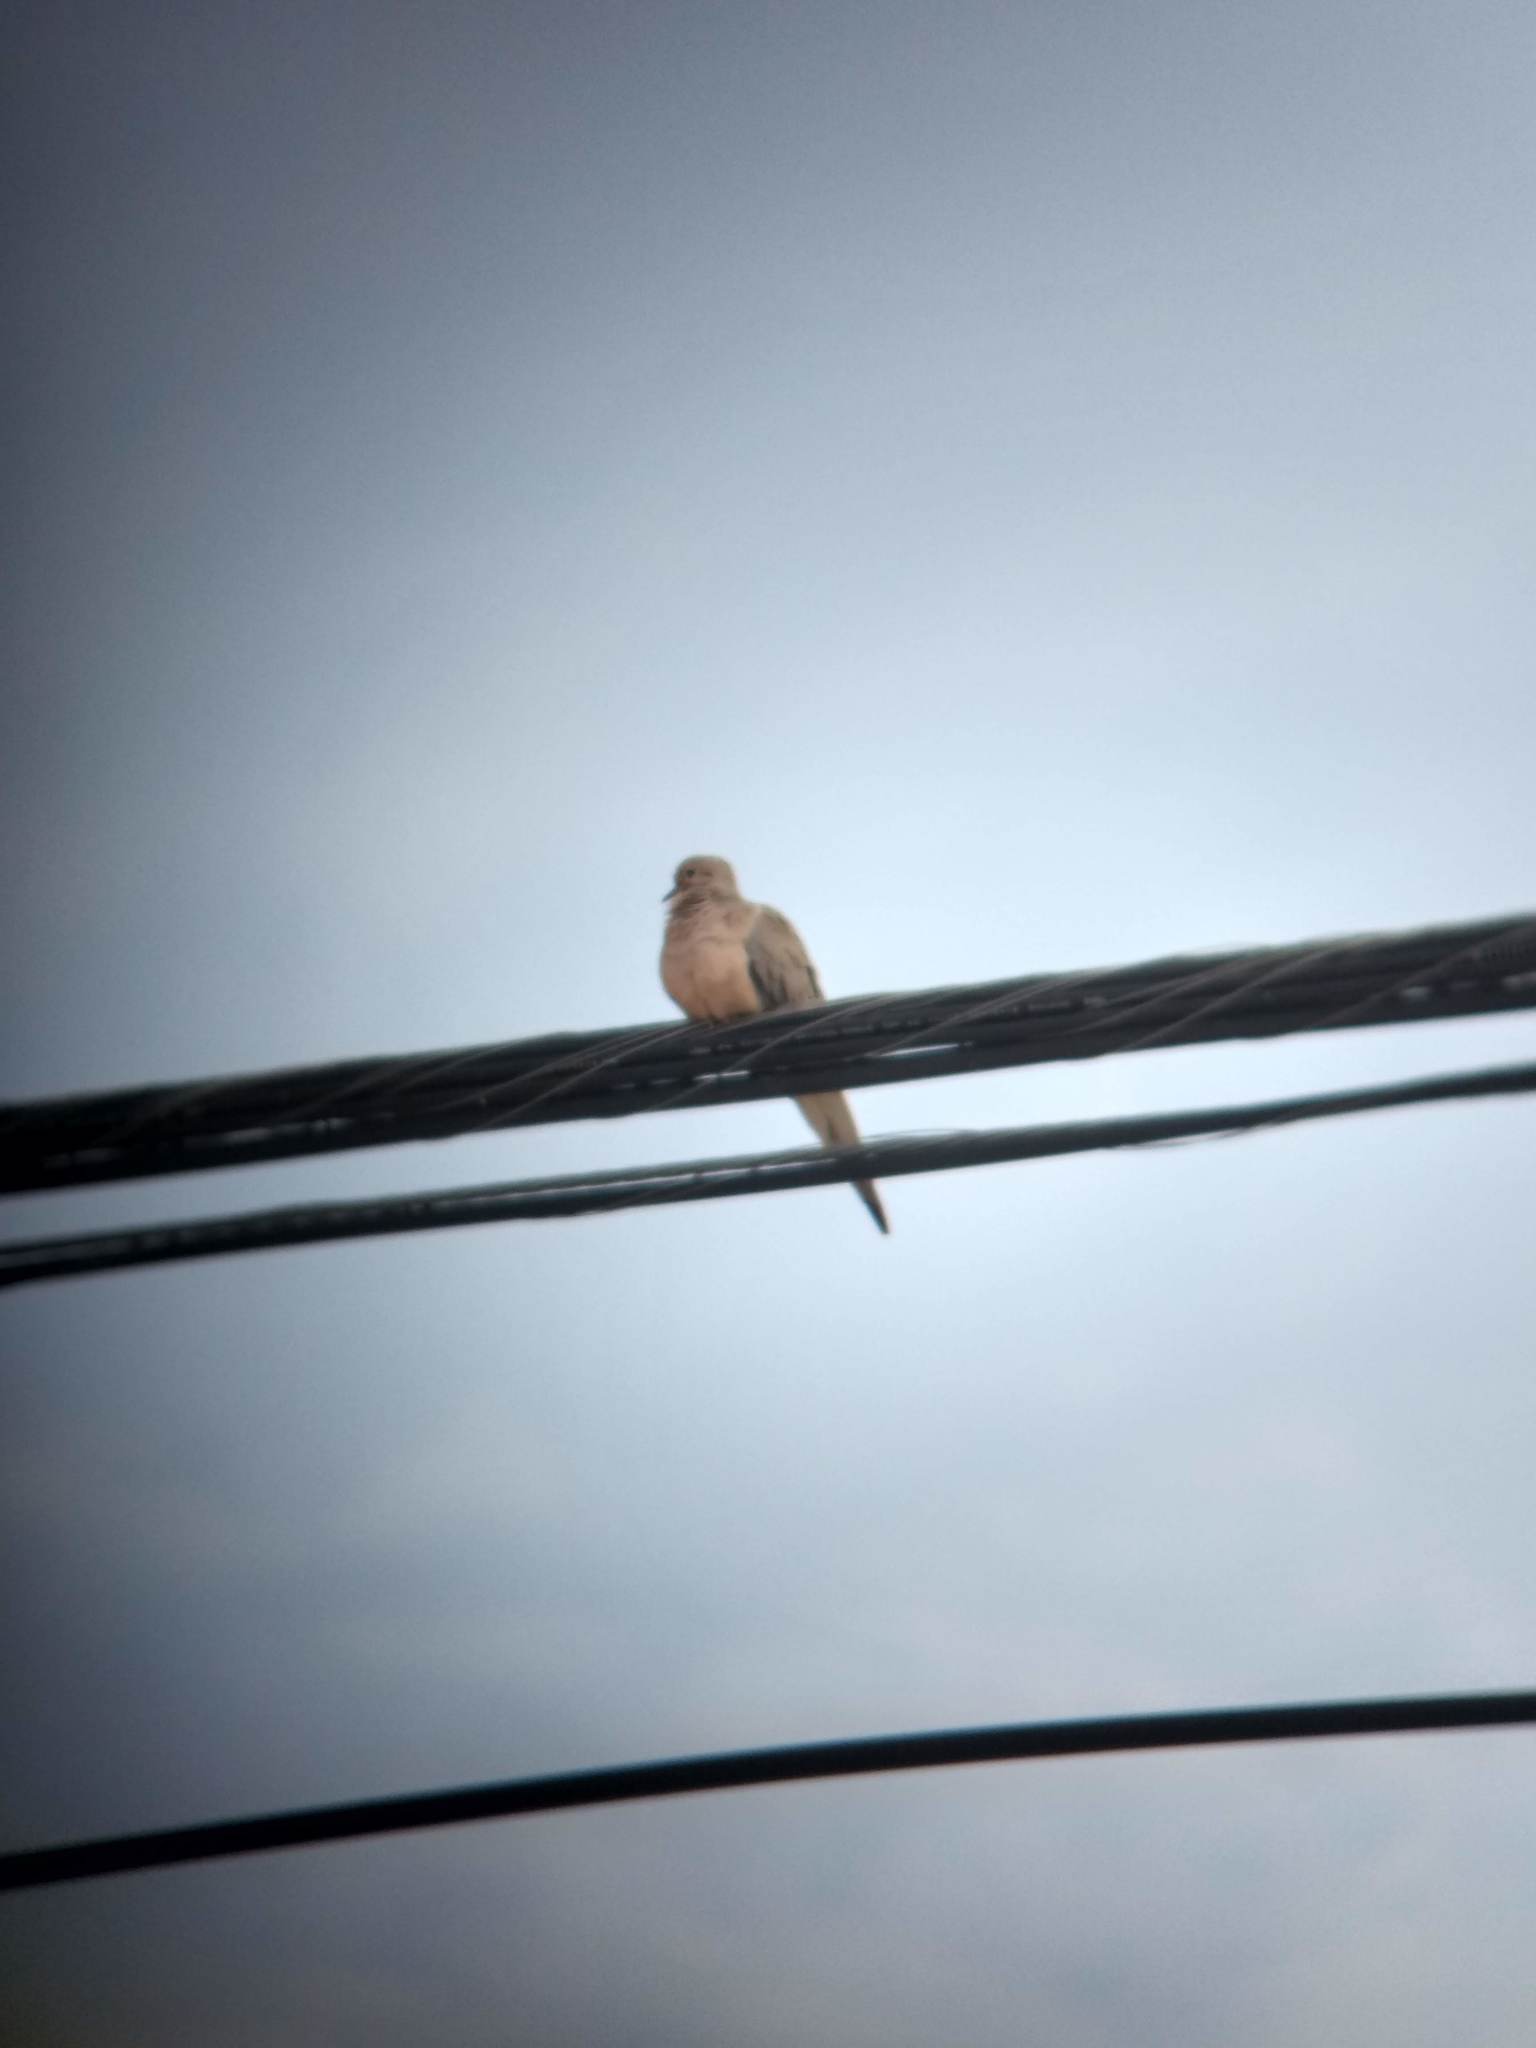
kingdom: Animalia
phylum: Chordata
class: Aves
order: Columbiformes
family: Columbidae
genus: Zenaida
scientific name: Zenaida macroura
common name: Mourning dove
